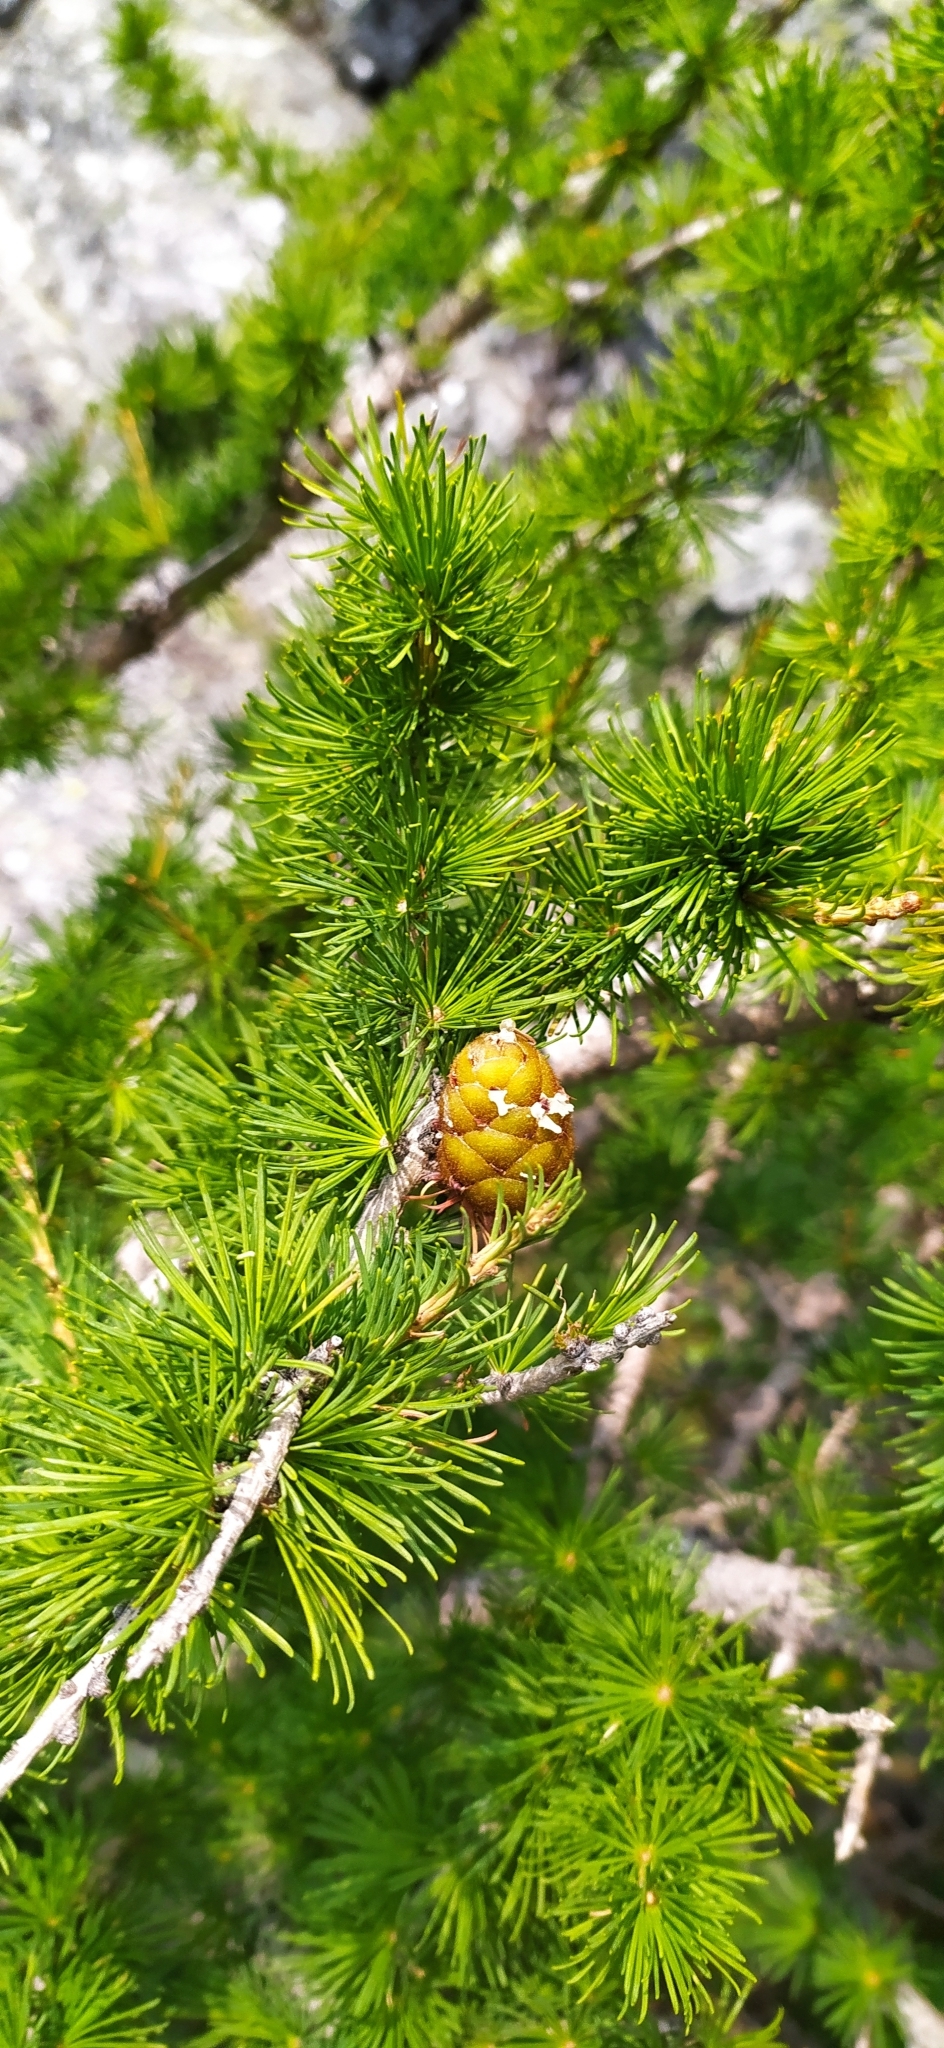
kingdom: Plantae
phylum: Tracheophyta
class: Pinopsida
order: Pinales
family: Pinaceae
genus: Larix
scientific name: Larix sibirica
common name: Siberian larch
